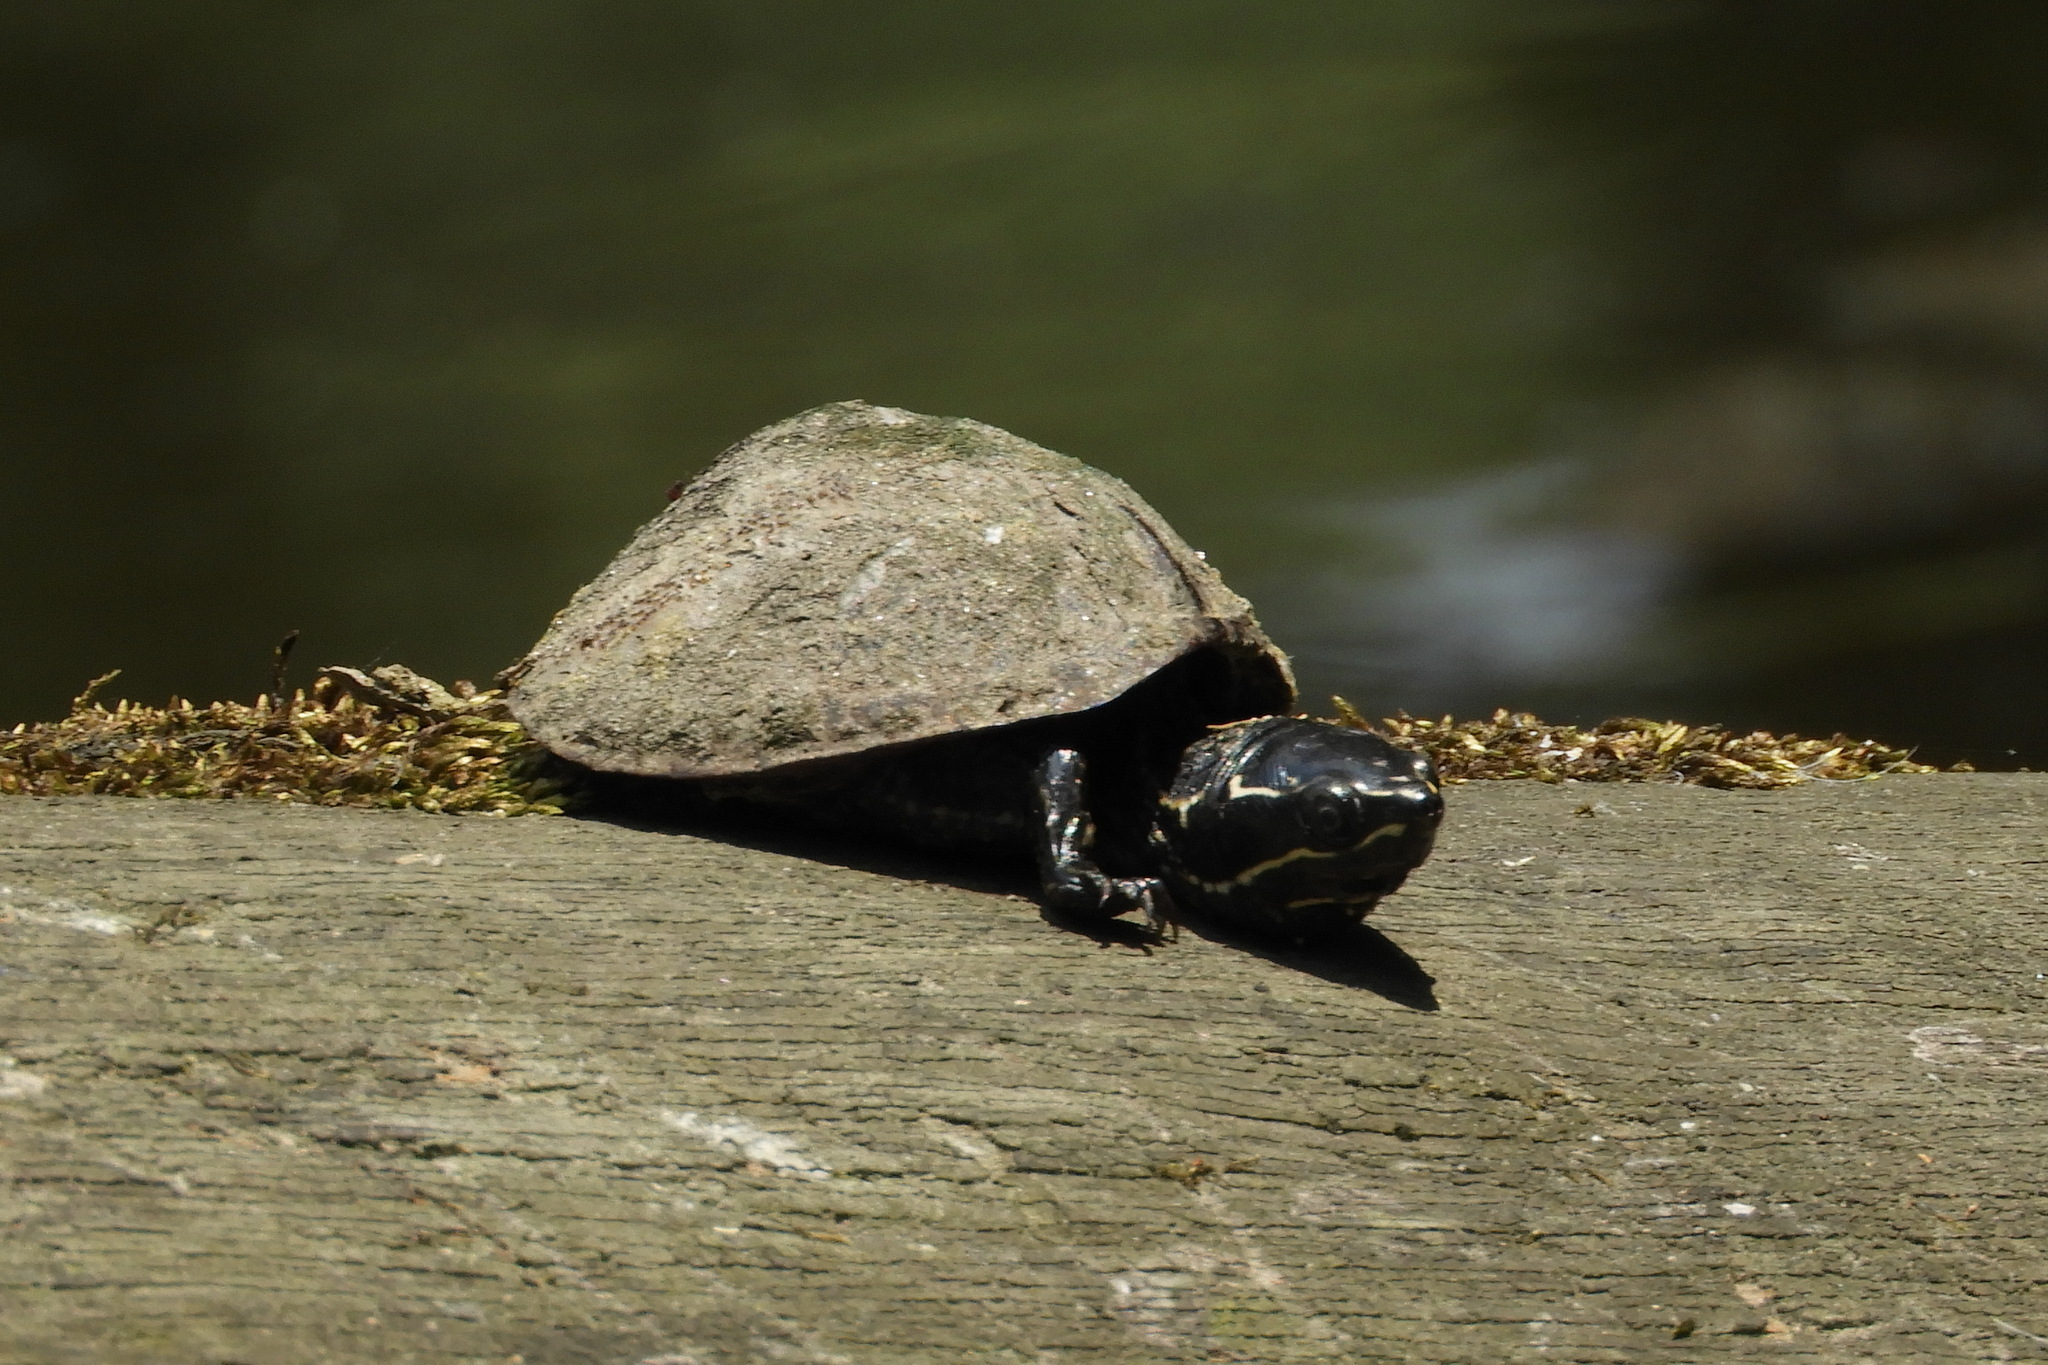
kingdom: Animalia
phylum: Chordata
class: Testudines
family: Kinosternidae
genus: Sternotherus
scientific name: Sternotherus odoratus
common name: Common musk turtle
